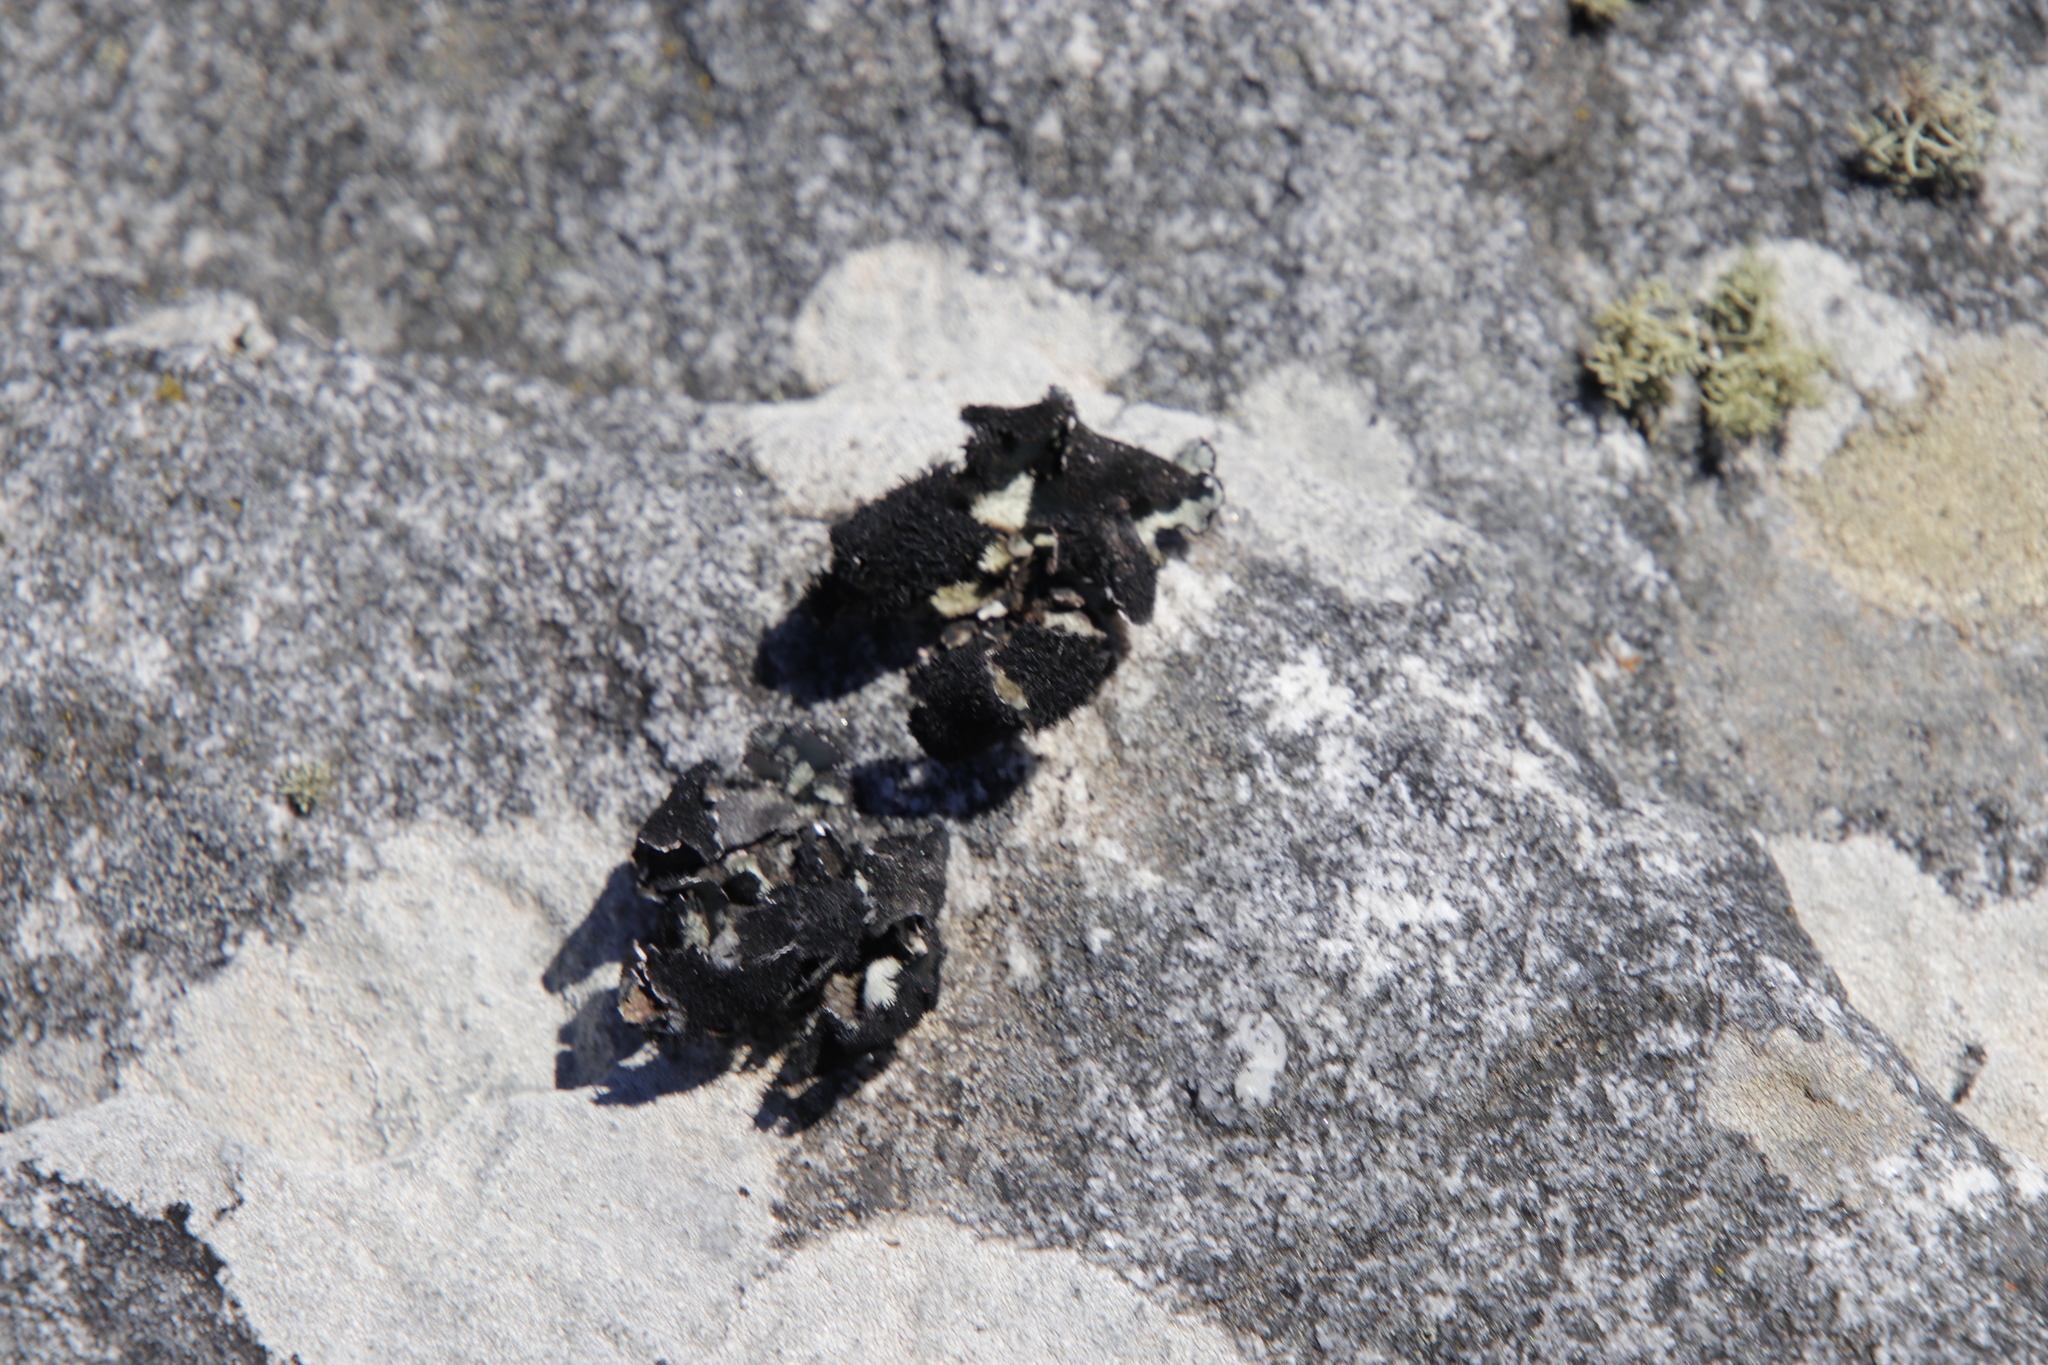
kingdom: Fungi
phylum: Ascomycota
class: Lecanoromycetes
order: Lecanorales
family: Parmeliaceae
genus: Xanthoparmelia
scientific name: Xanthoparmelia hottentotta
